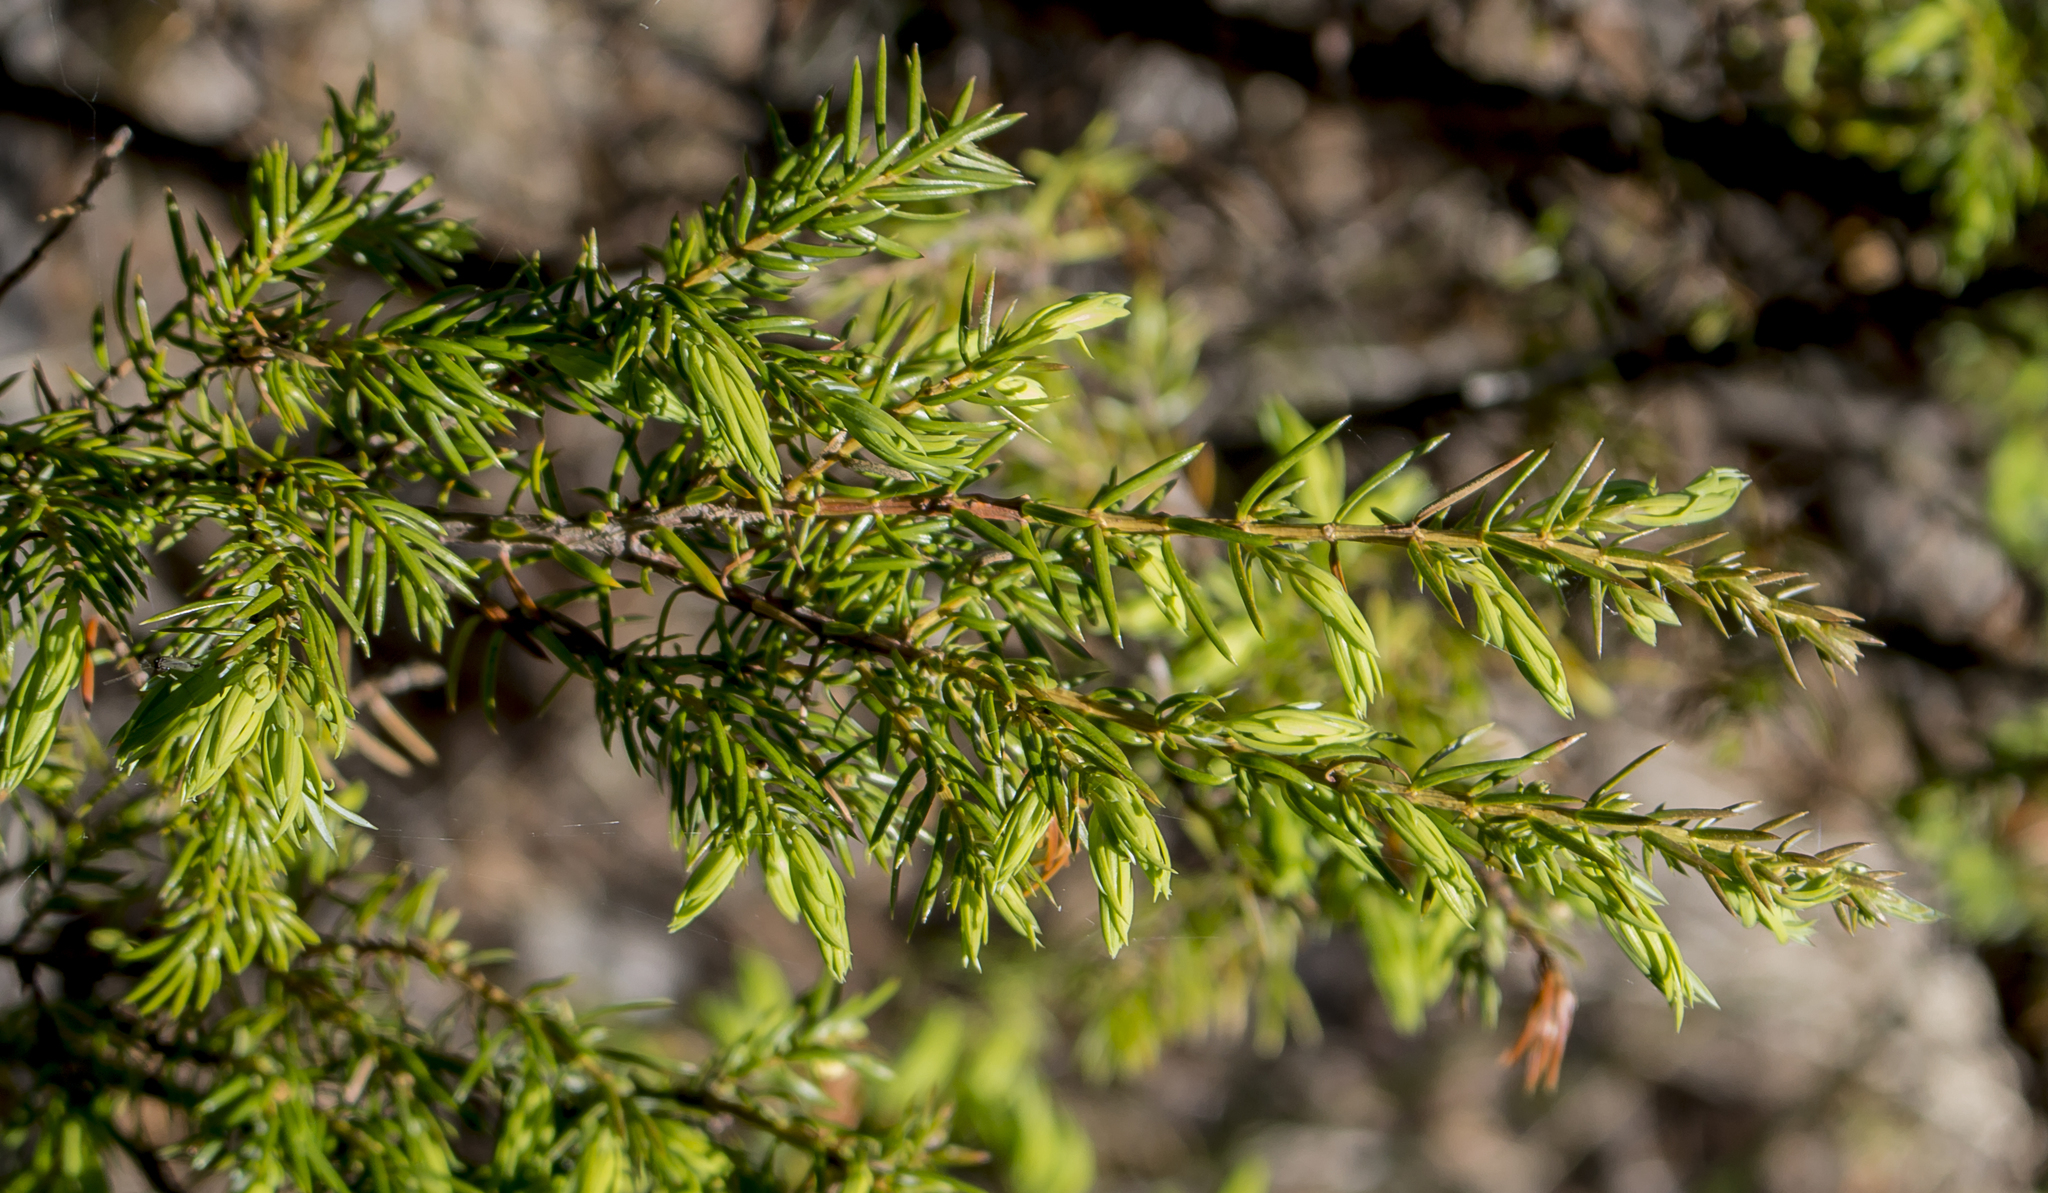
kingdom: Plantae
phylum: Tracheophyta
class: Pinopsida
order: Pinales
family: Cupressaceae
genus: Juniperus
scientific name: Juniperus communis
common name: Common juniper
